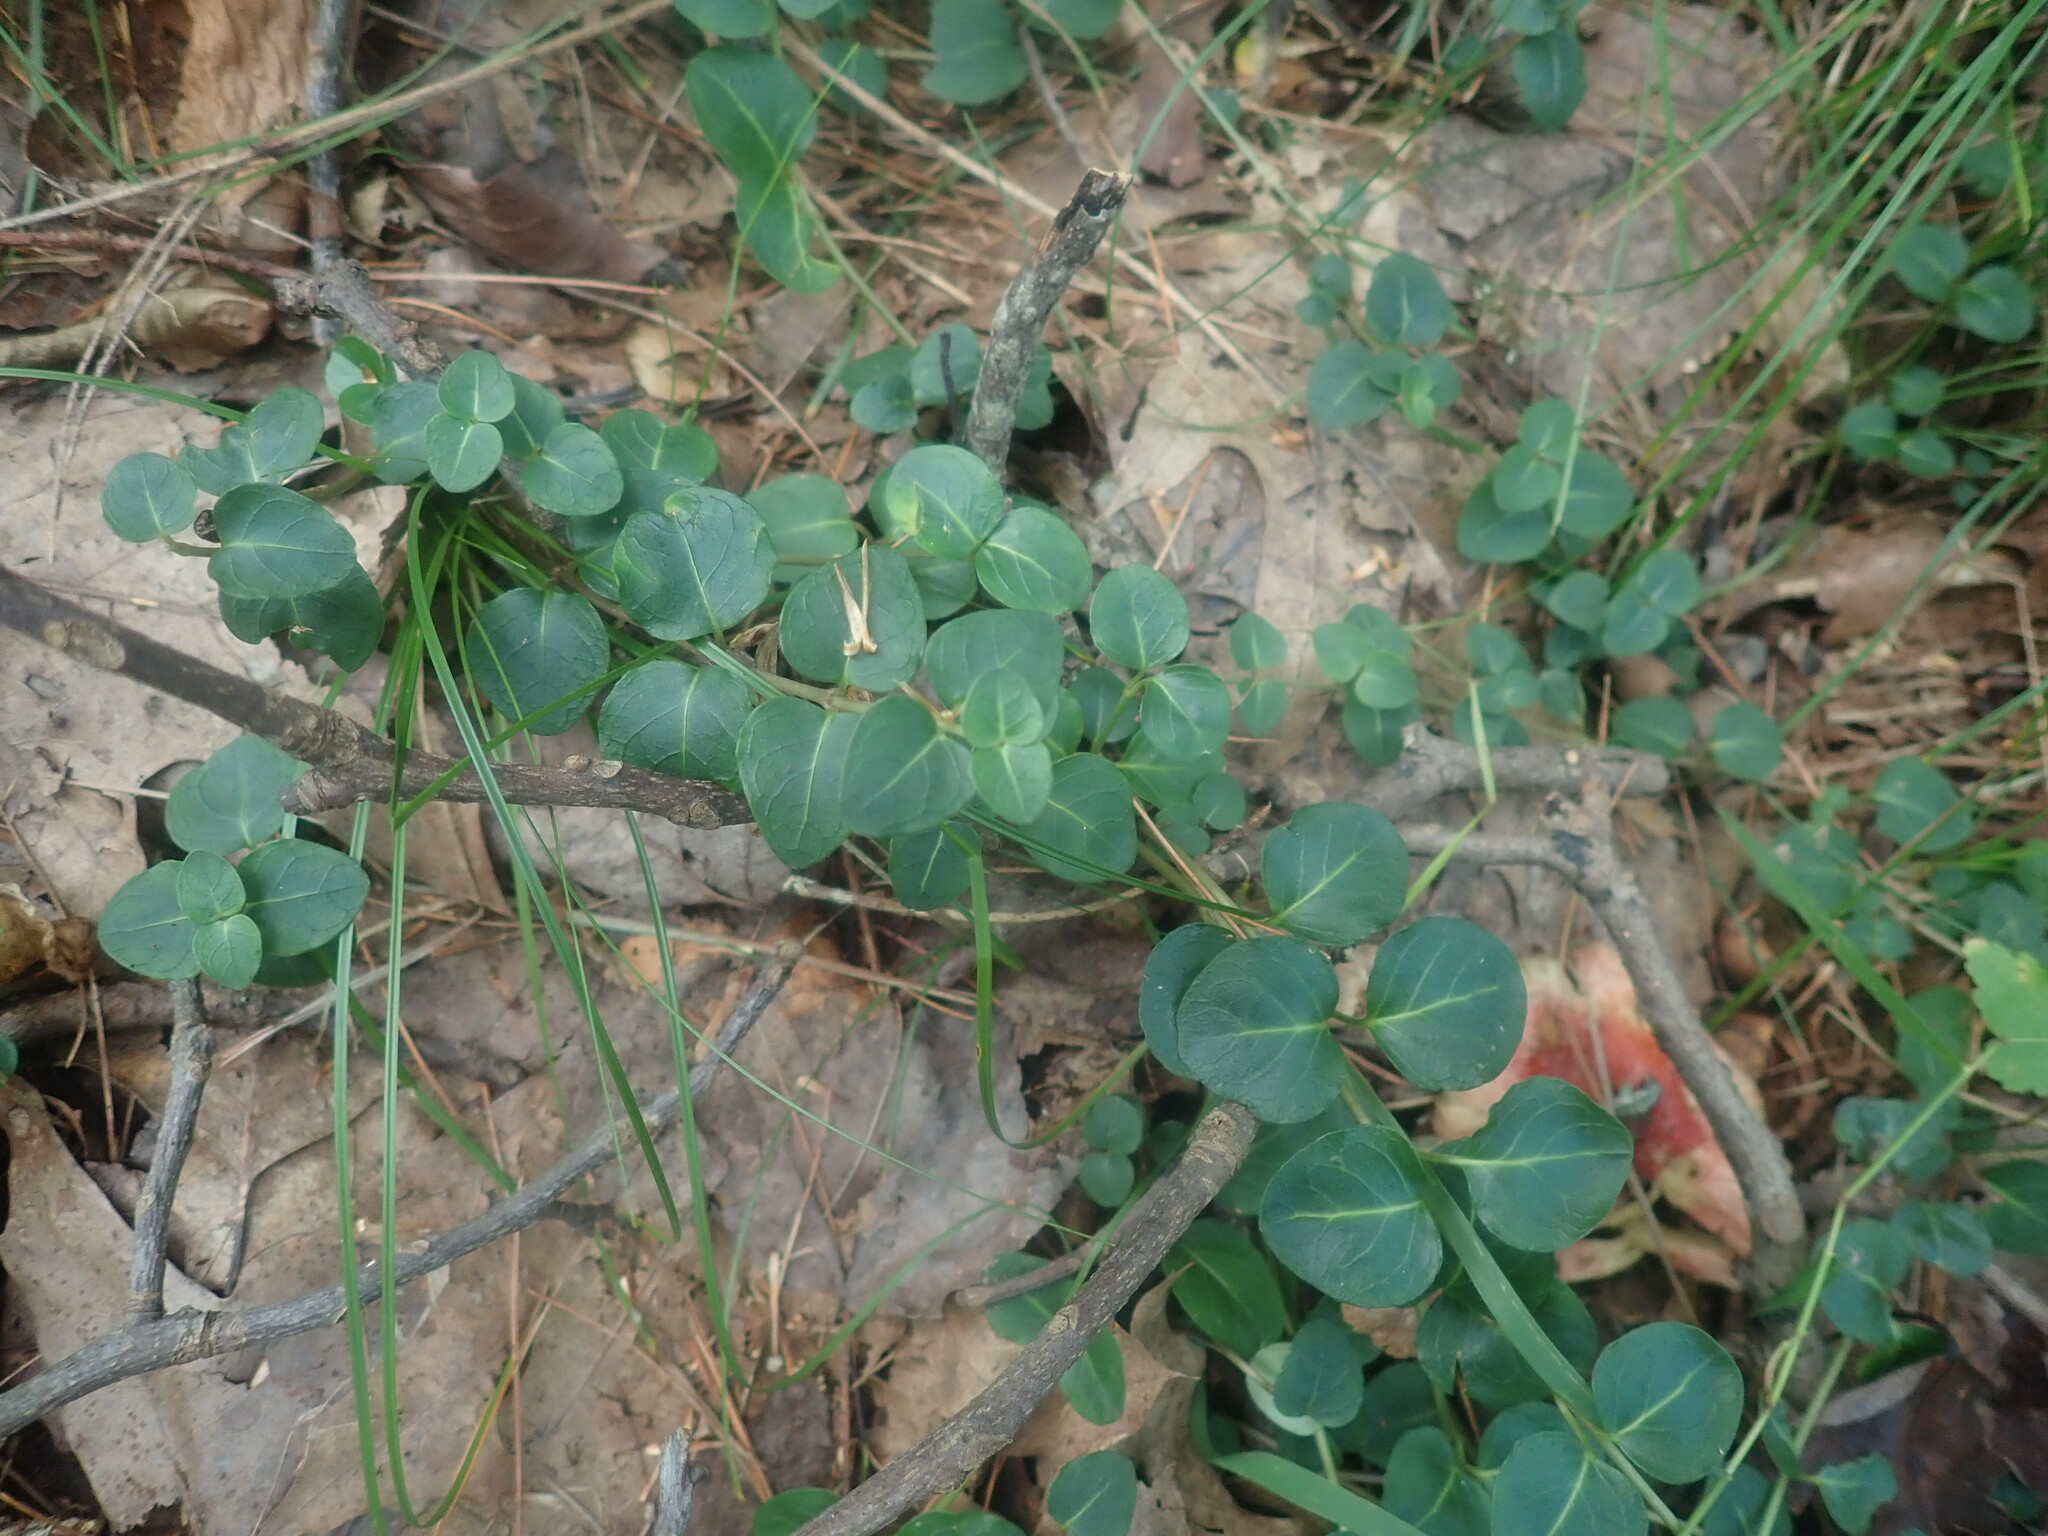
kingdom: Plantae
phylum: Tracheophyta
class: Magnoliopsida
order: Gentianales
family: Rubiaceae
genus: Mitchella
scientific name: Mitchella repens
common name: Partridge-berry
